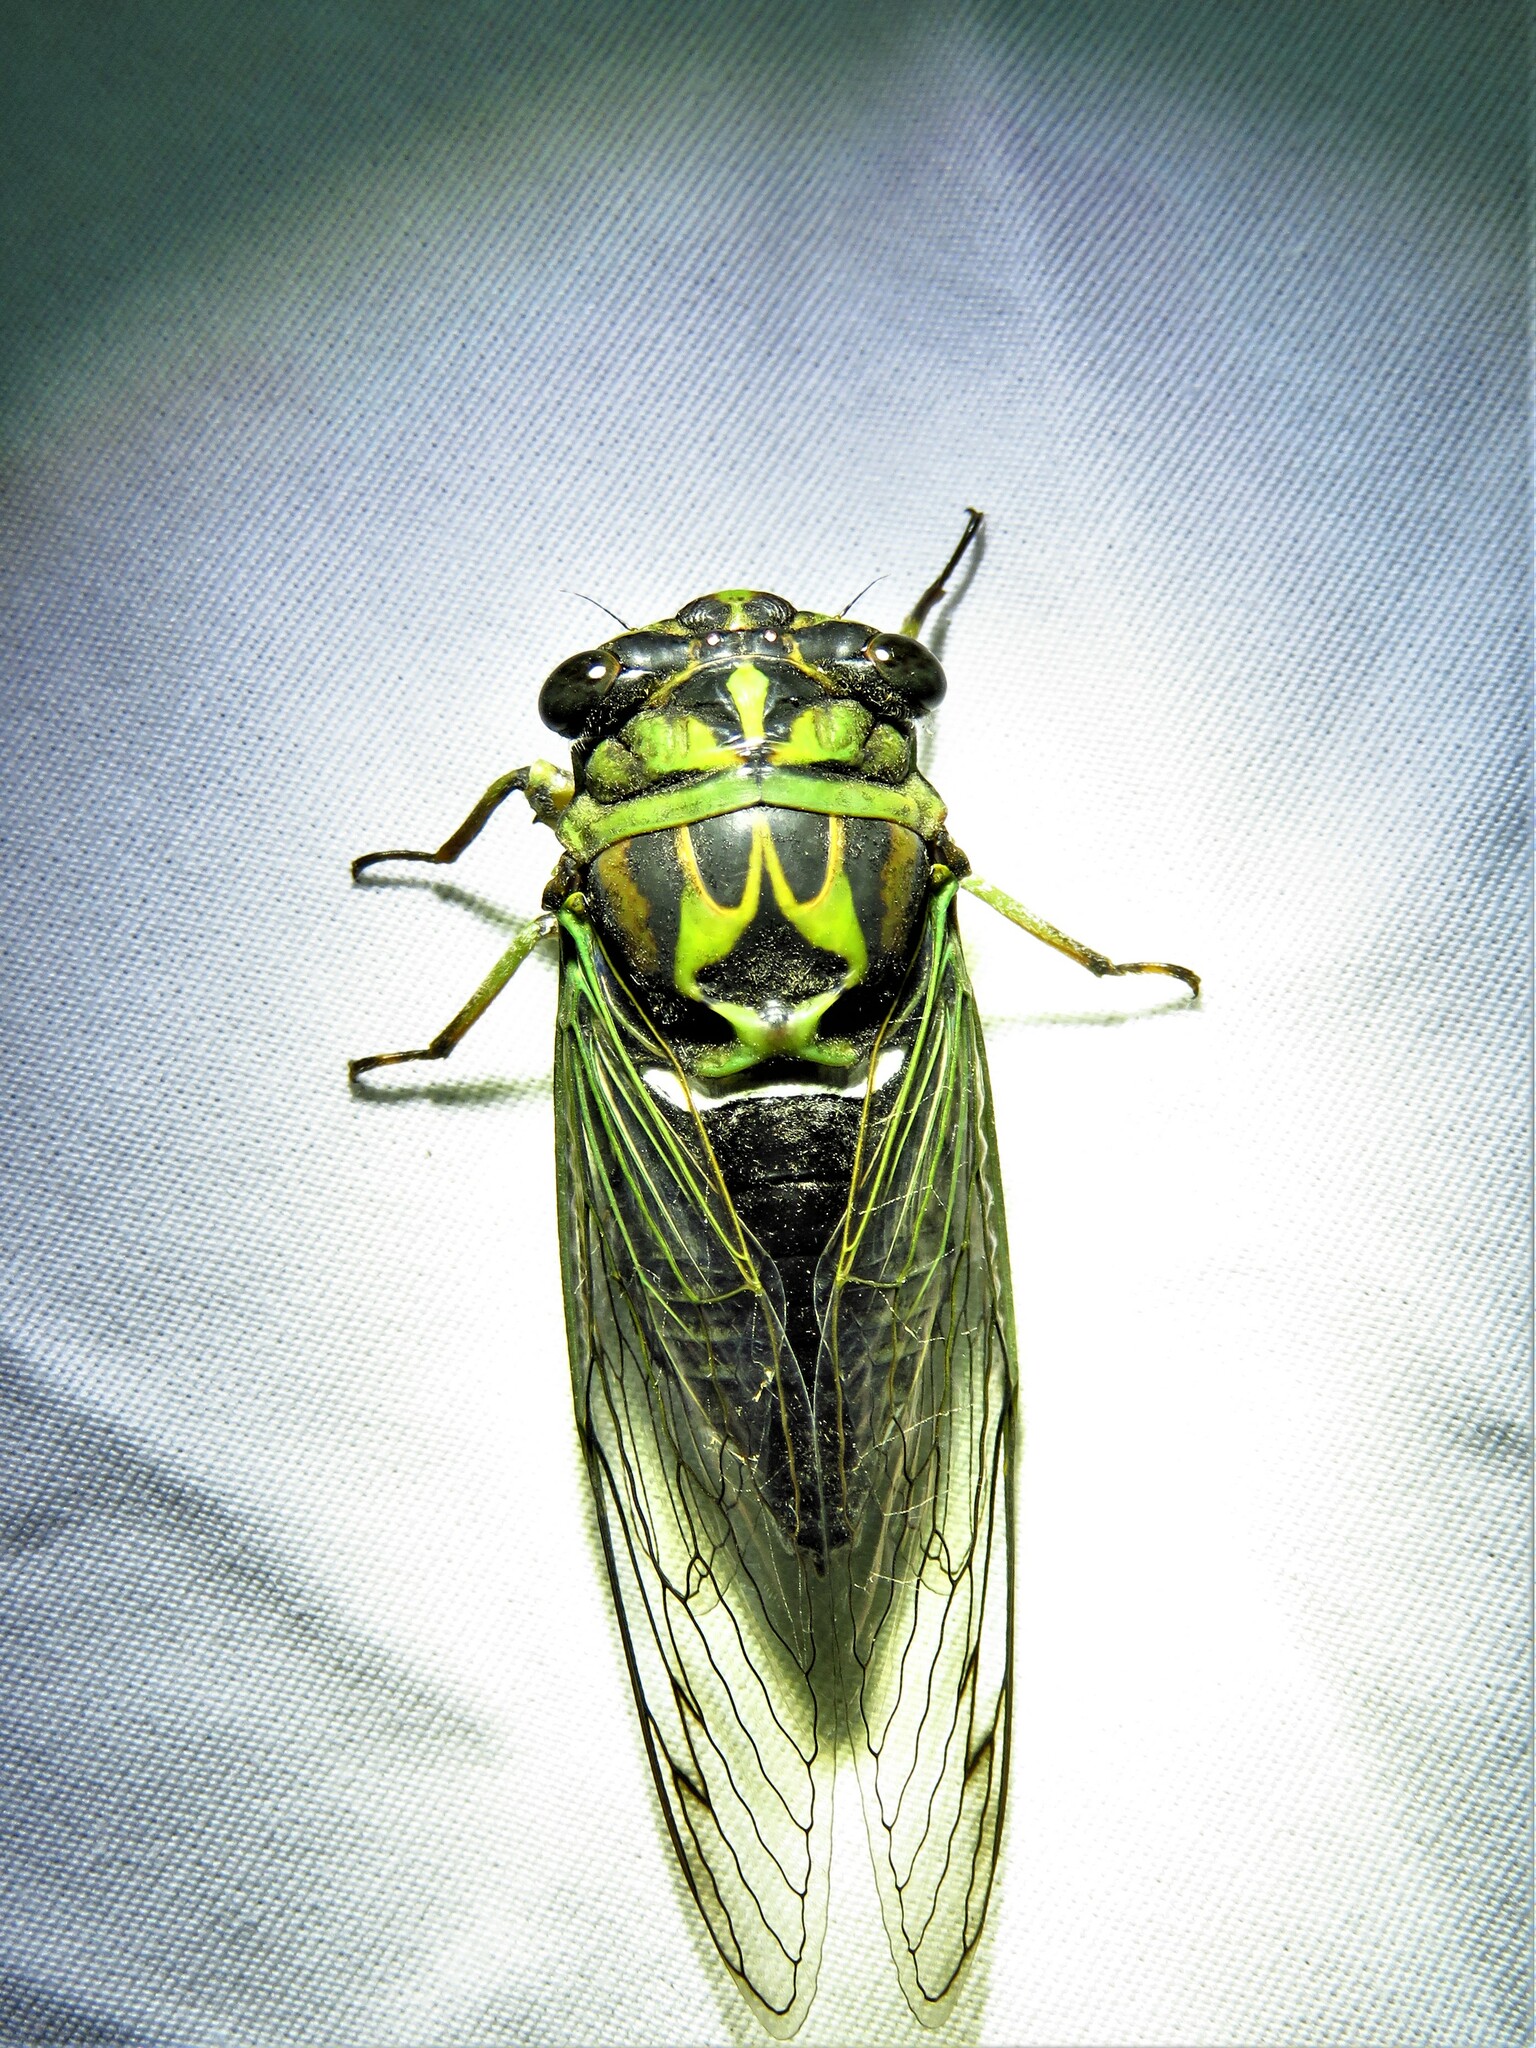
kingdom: Animalia
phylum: Arthropoda
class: Insecta
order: Hemiptera
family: Cicadidae
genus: Neotibicen
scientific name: Neotibicen robinsonianus
